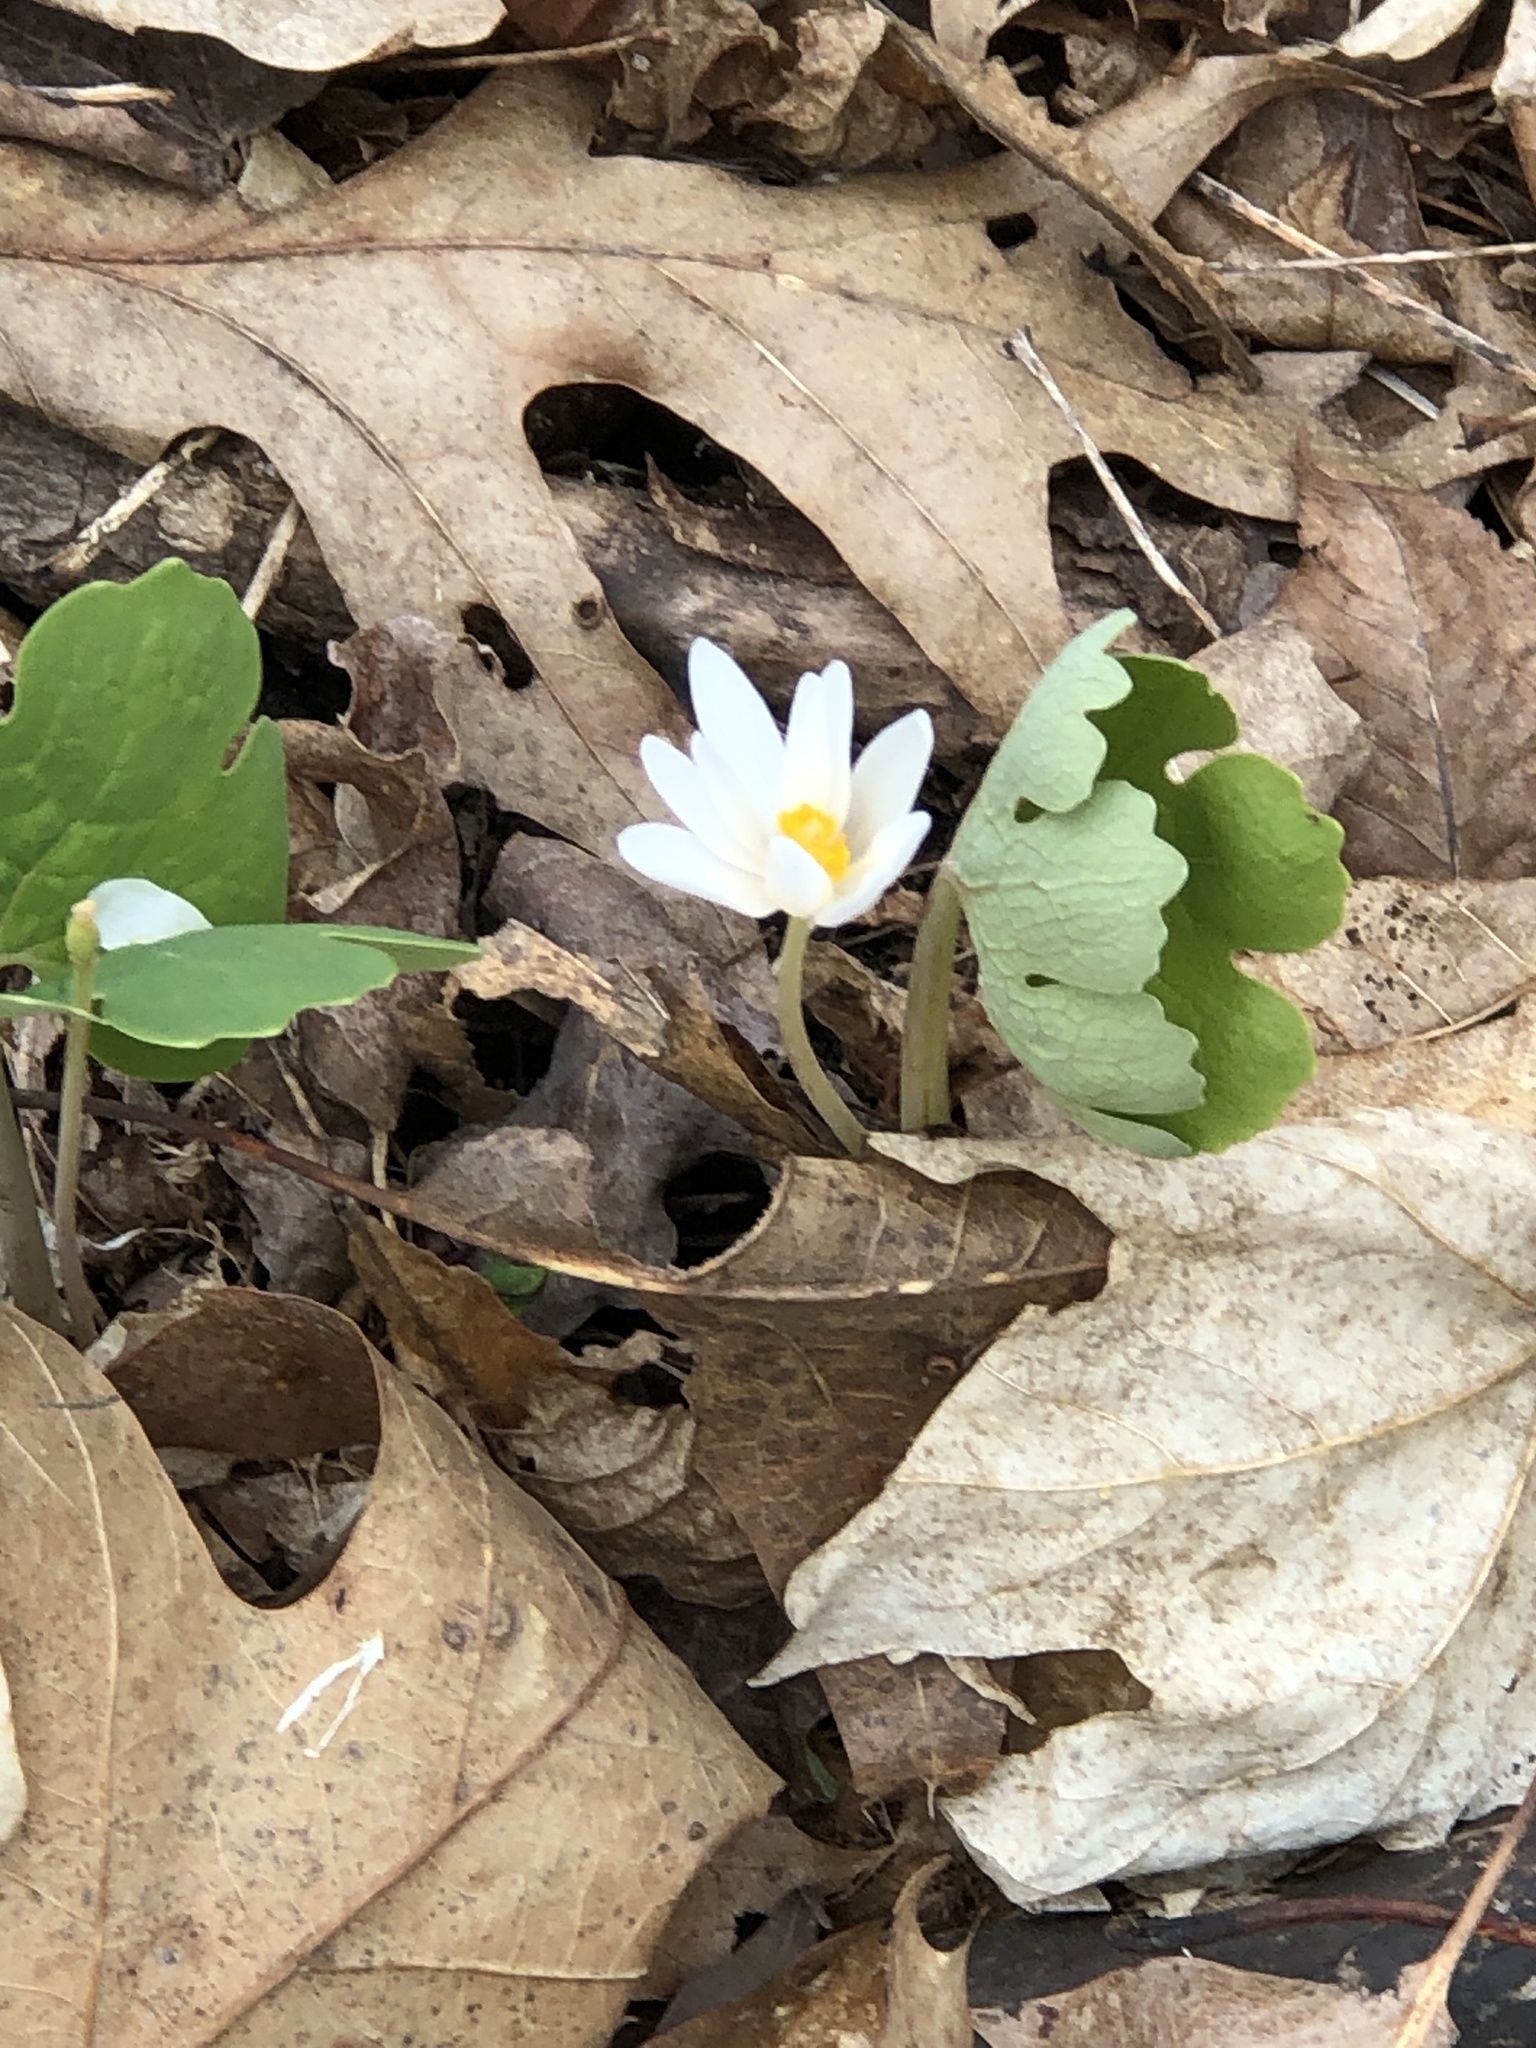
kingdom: Plantae
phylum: Tracheophyta
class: Magnoliopsida
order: Ranunculales
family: Papaveraceae
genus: Sanguinaria
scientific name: Sanguinaria canadensis
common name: Bloodroot
